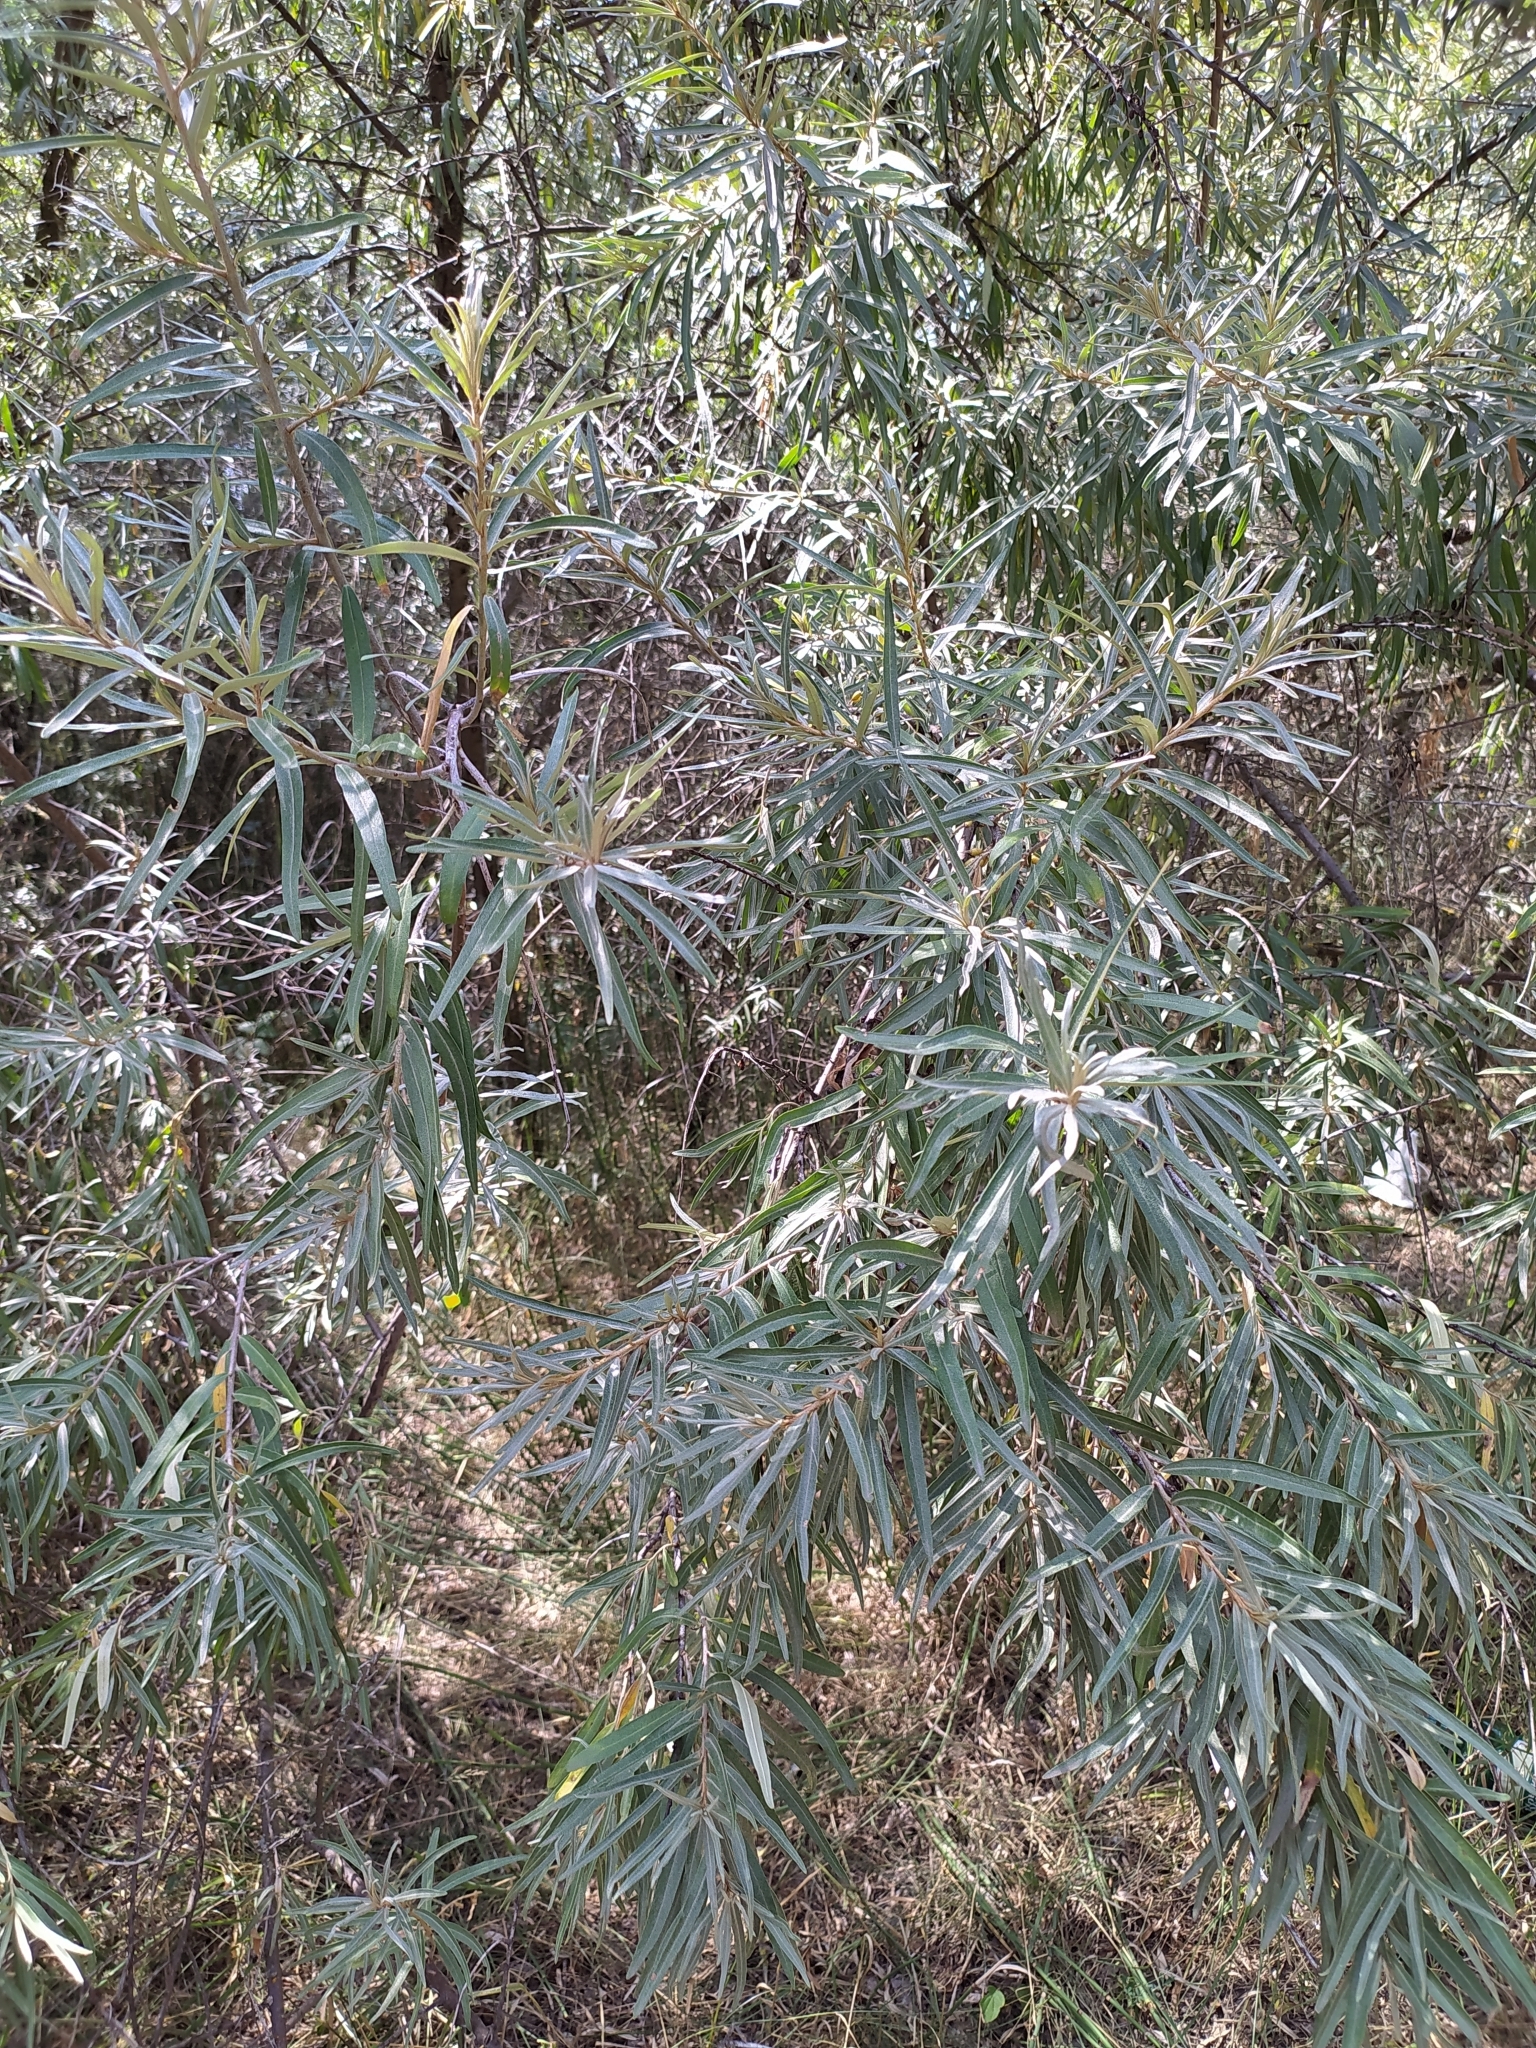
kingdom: Plantae
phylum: Tracheophyta
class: Magnoliopsida
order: Rosales
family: Elaeagnaceae
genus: Hippophae
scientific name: Hippophae rhamnoides
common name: Sea-buckthorn
